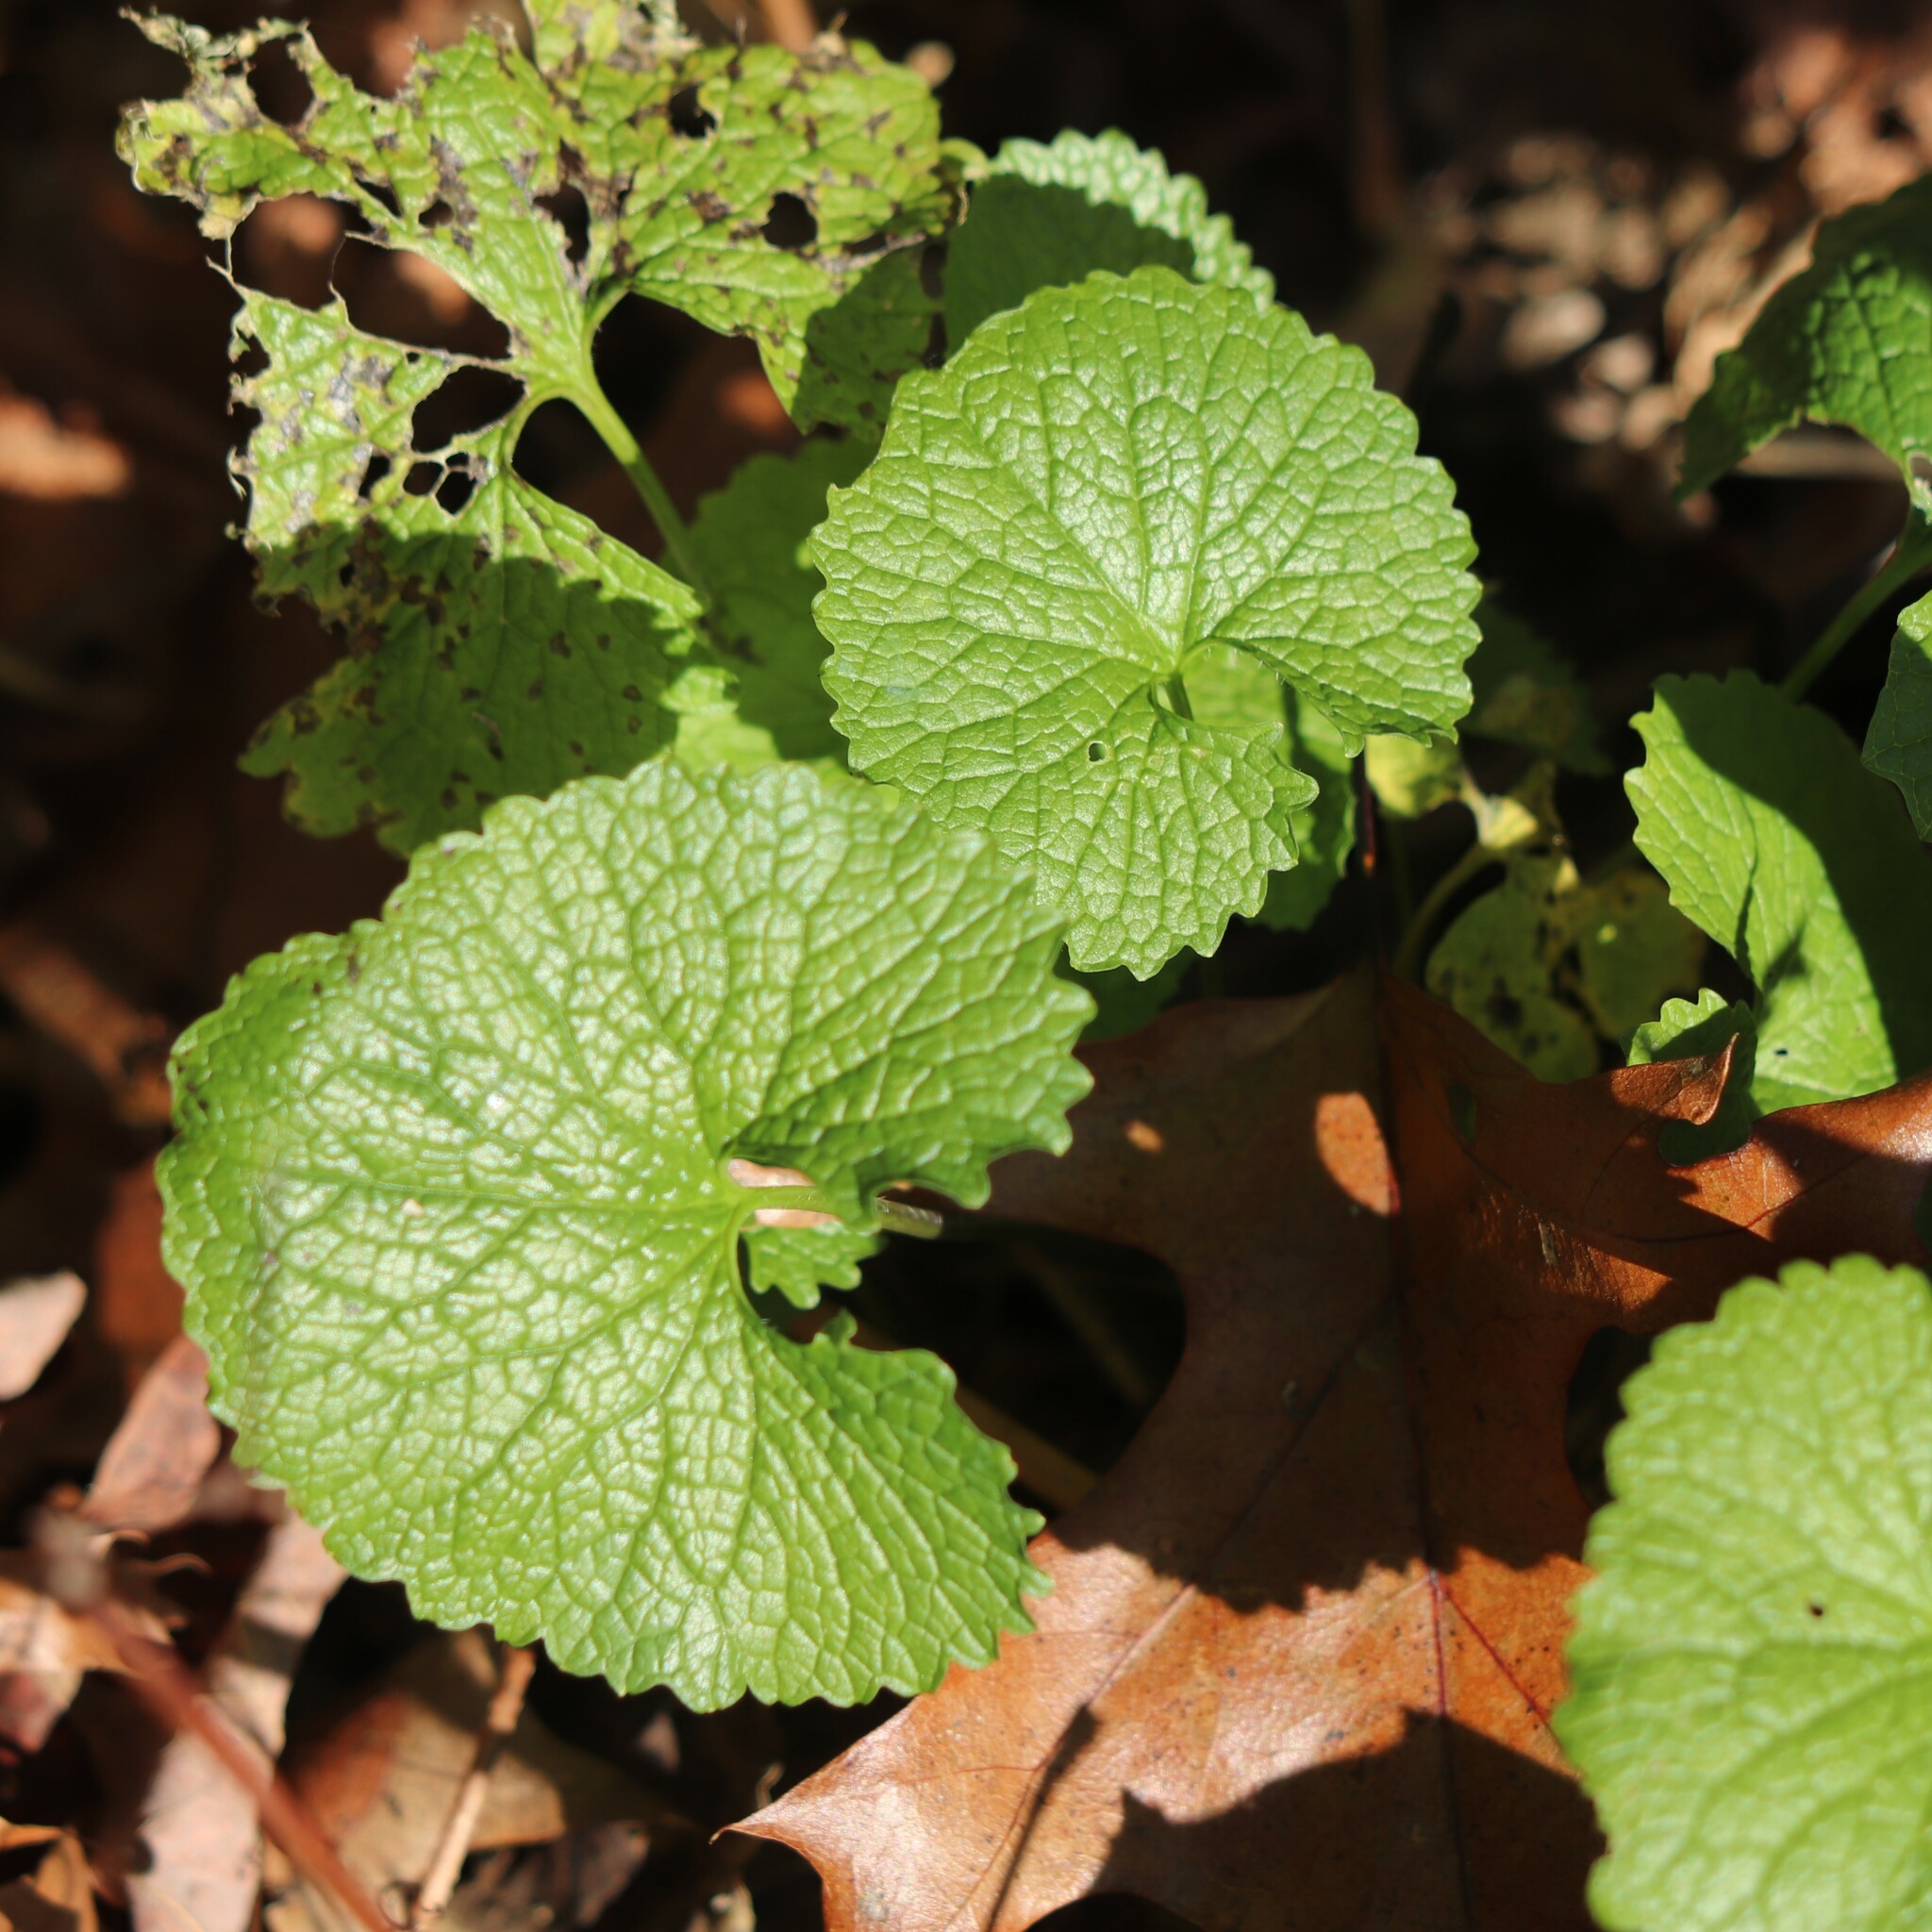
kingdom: Plantae
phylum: Tracheophyta
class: Magnoliopsida
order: Brassicales
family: Brassicaceae
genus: Alliaria
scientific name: Alliaria petiolata
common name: Garlic mustard
